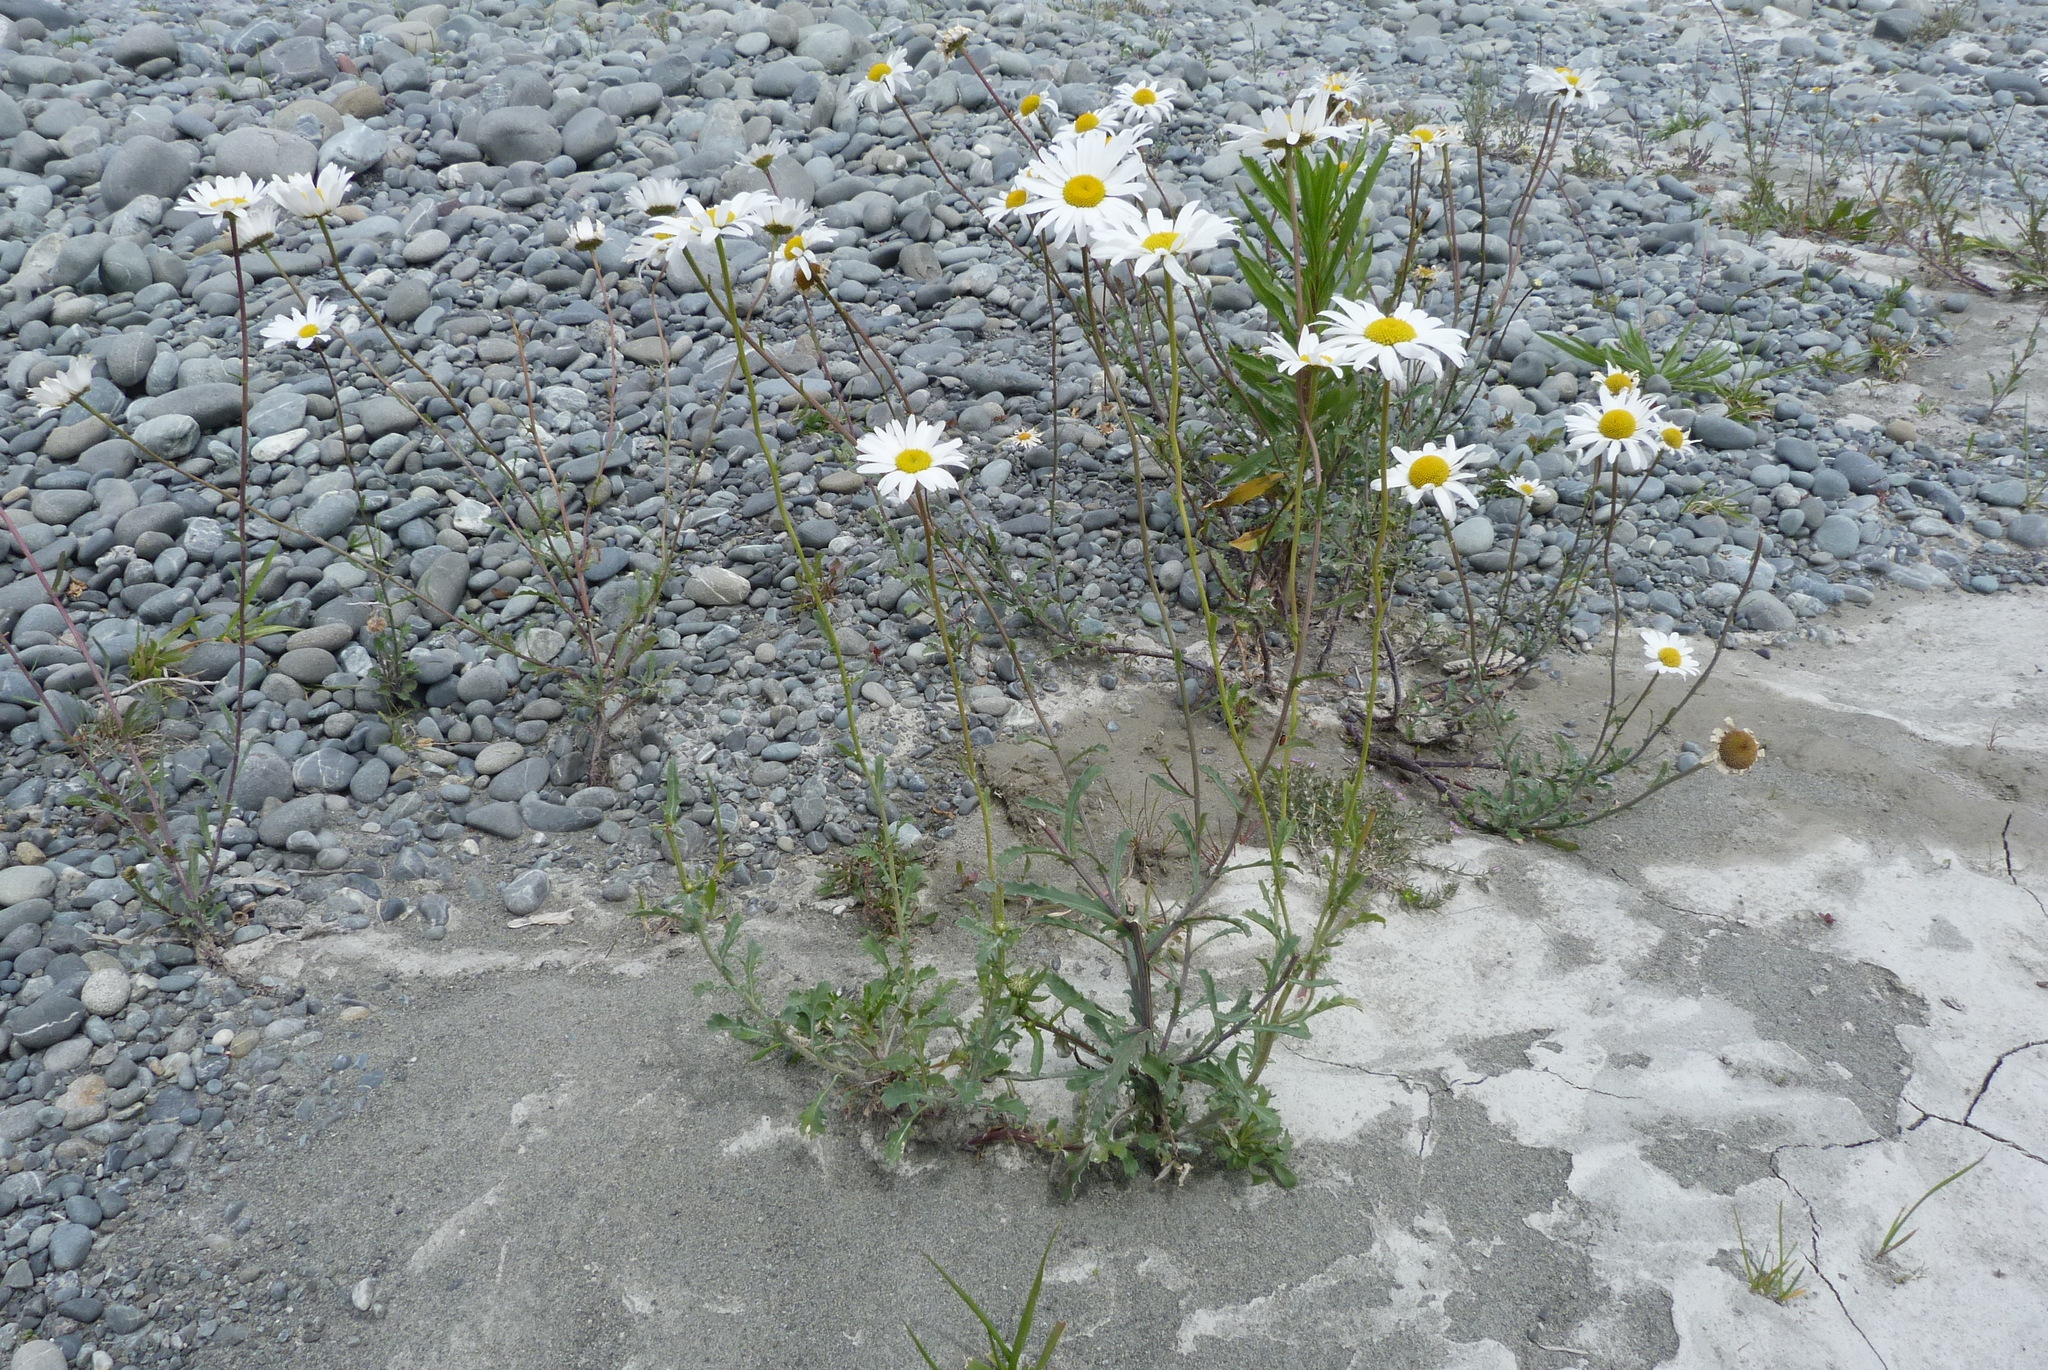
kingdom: Plantae
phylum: Tracheophyta
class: Magnoliopsida
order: Asterales
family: Asteraceae
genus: Leucanthemum
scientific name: Leucanthemum vulgare
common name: Oxeye daisy
